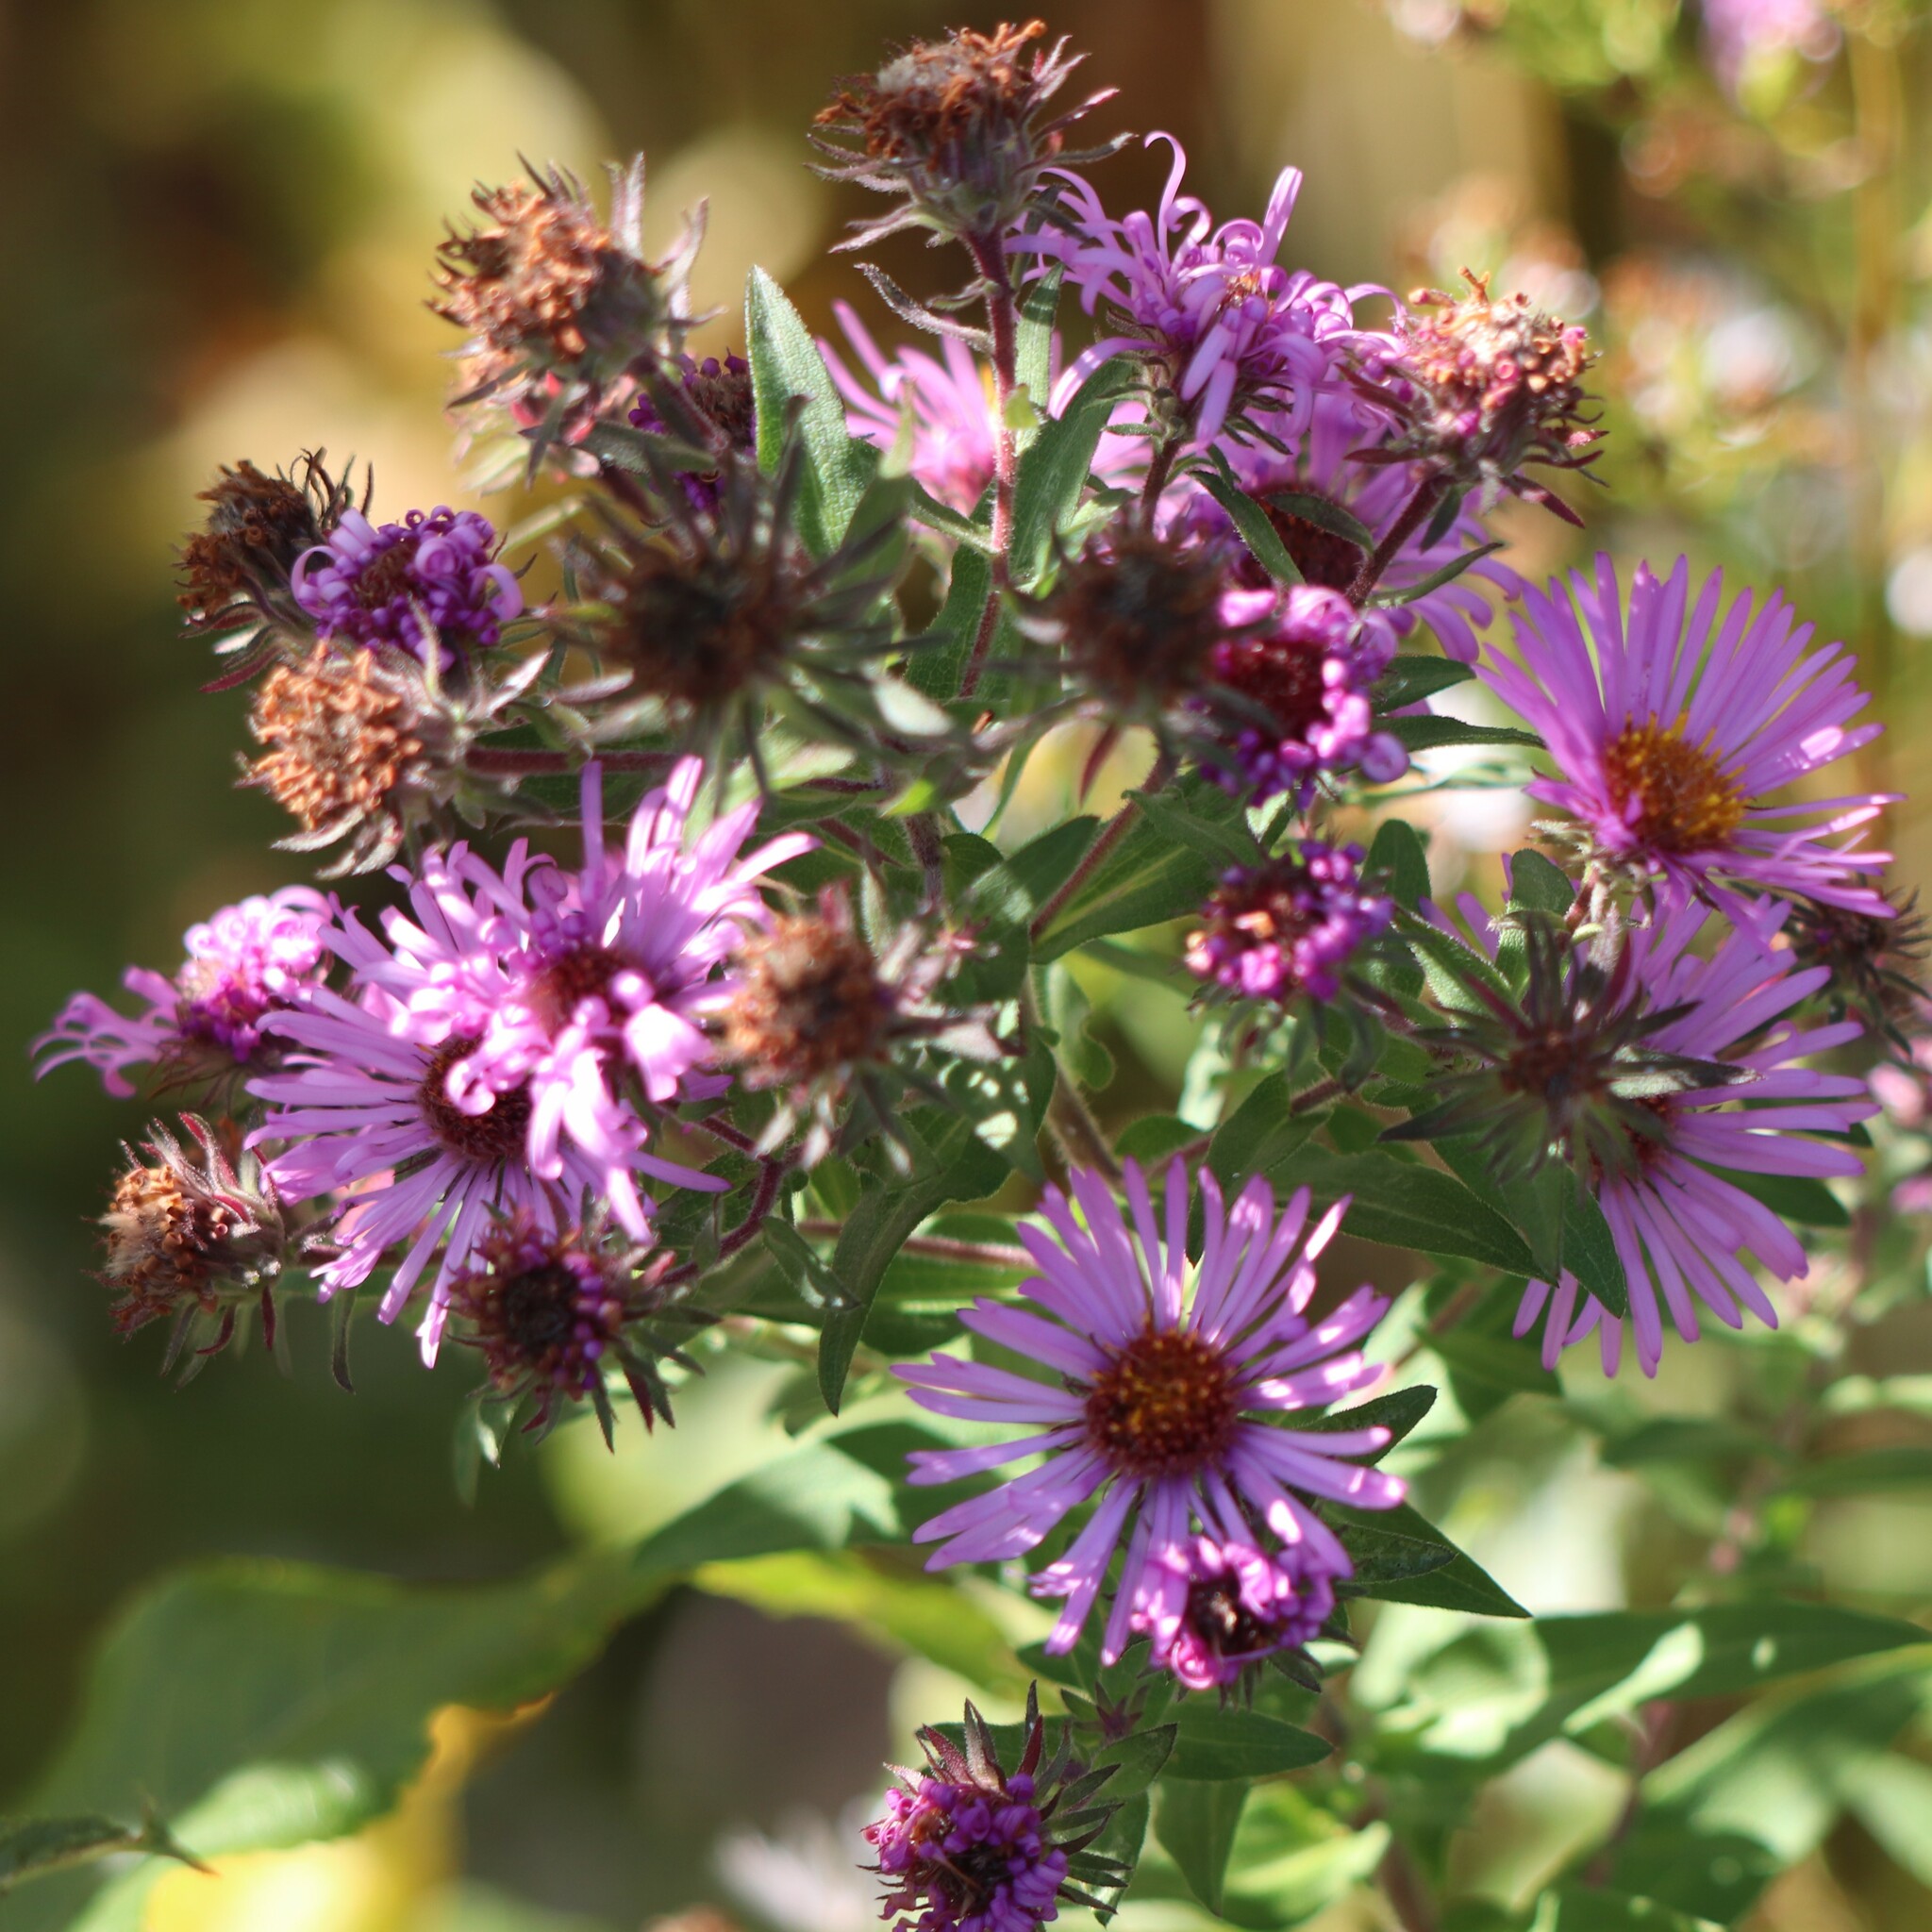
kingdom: Plantae
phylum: Tracheophyta
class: Magnoliopsida
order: Asterales
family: Asteraceae
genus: Symphyotrichum
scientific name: Symphyotrichum novae-angliae
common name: Michaelmas daisy
